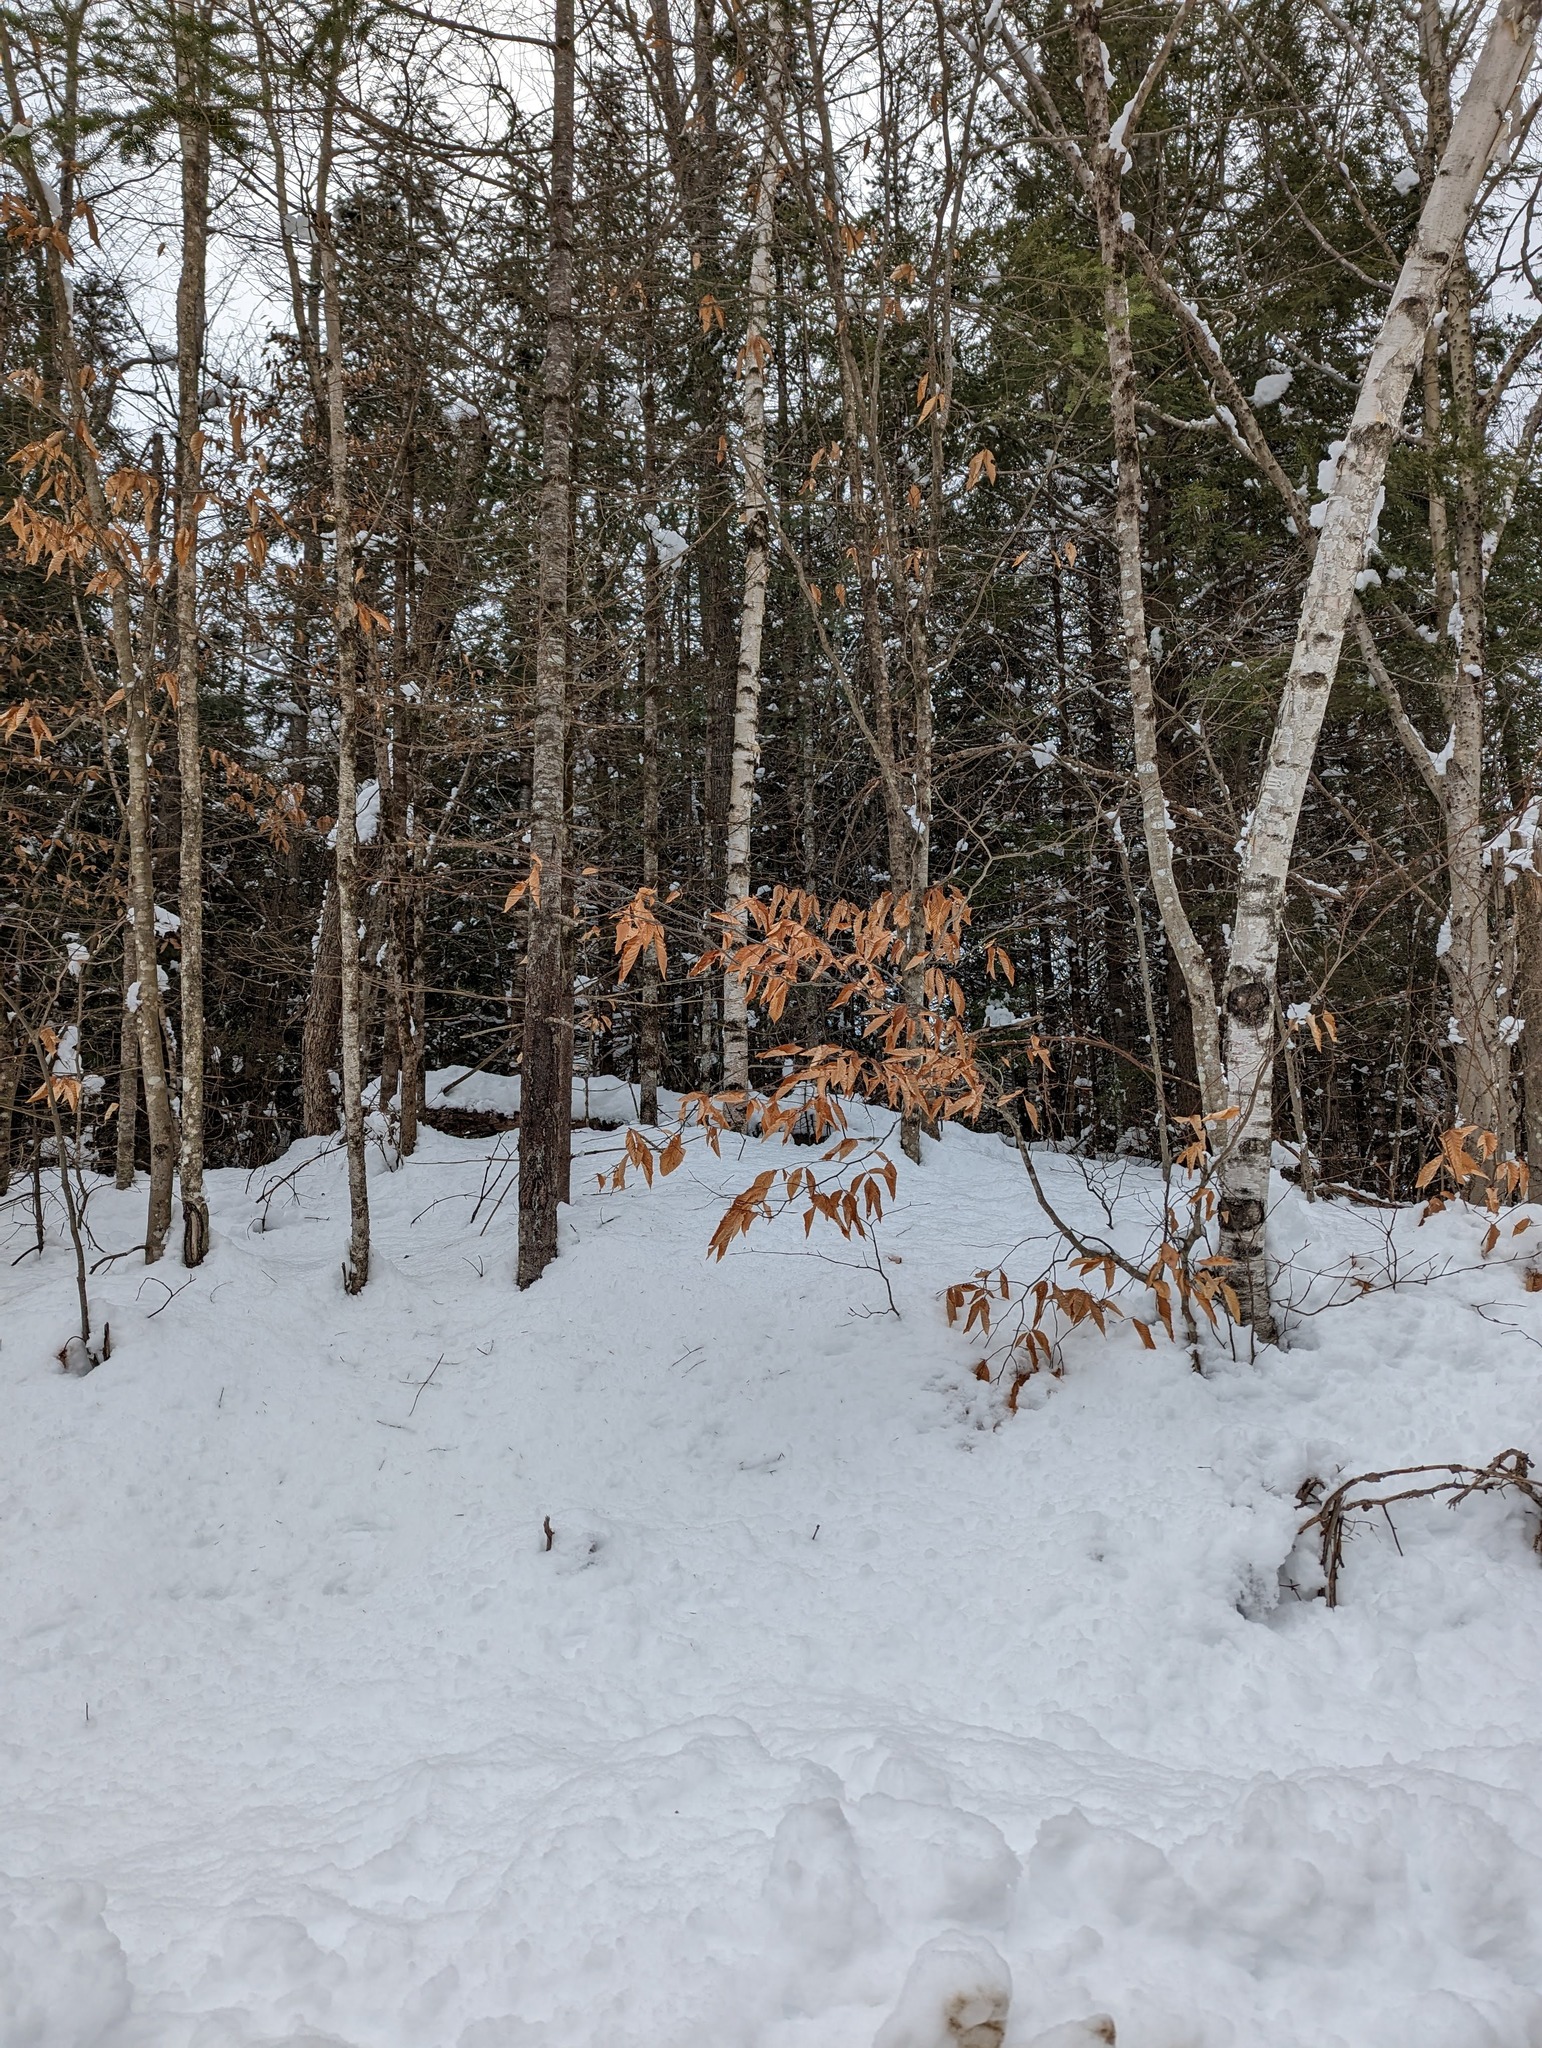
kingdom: Plantae
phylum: Tracheophyta
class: Magnoliopsida
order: Fagales
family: Fagaceae
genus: Fagus
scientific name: Fagus grandifolia
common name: American beech
